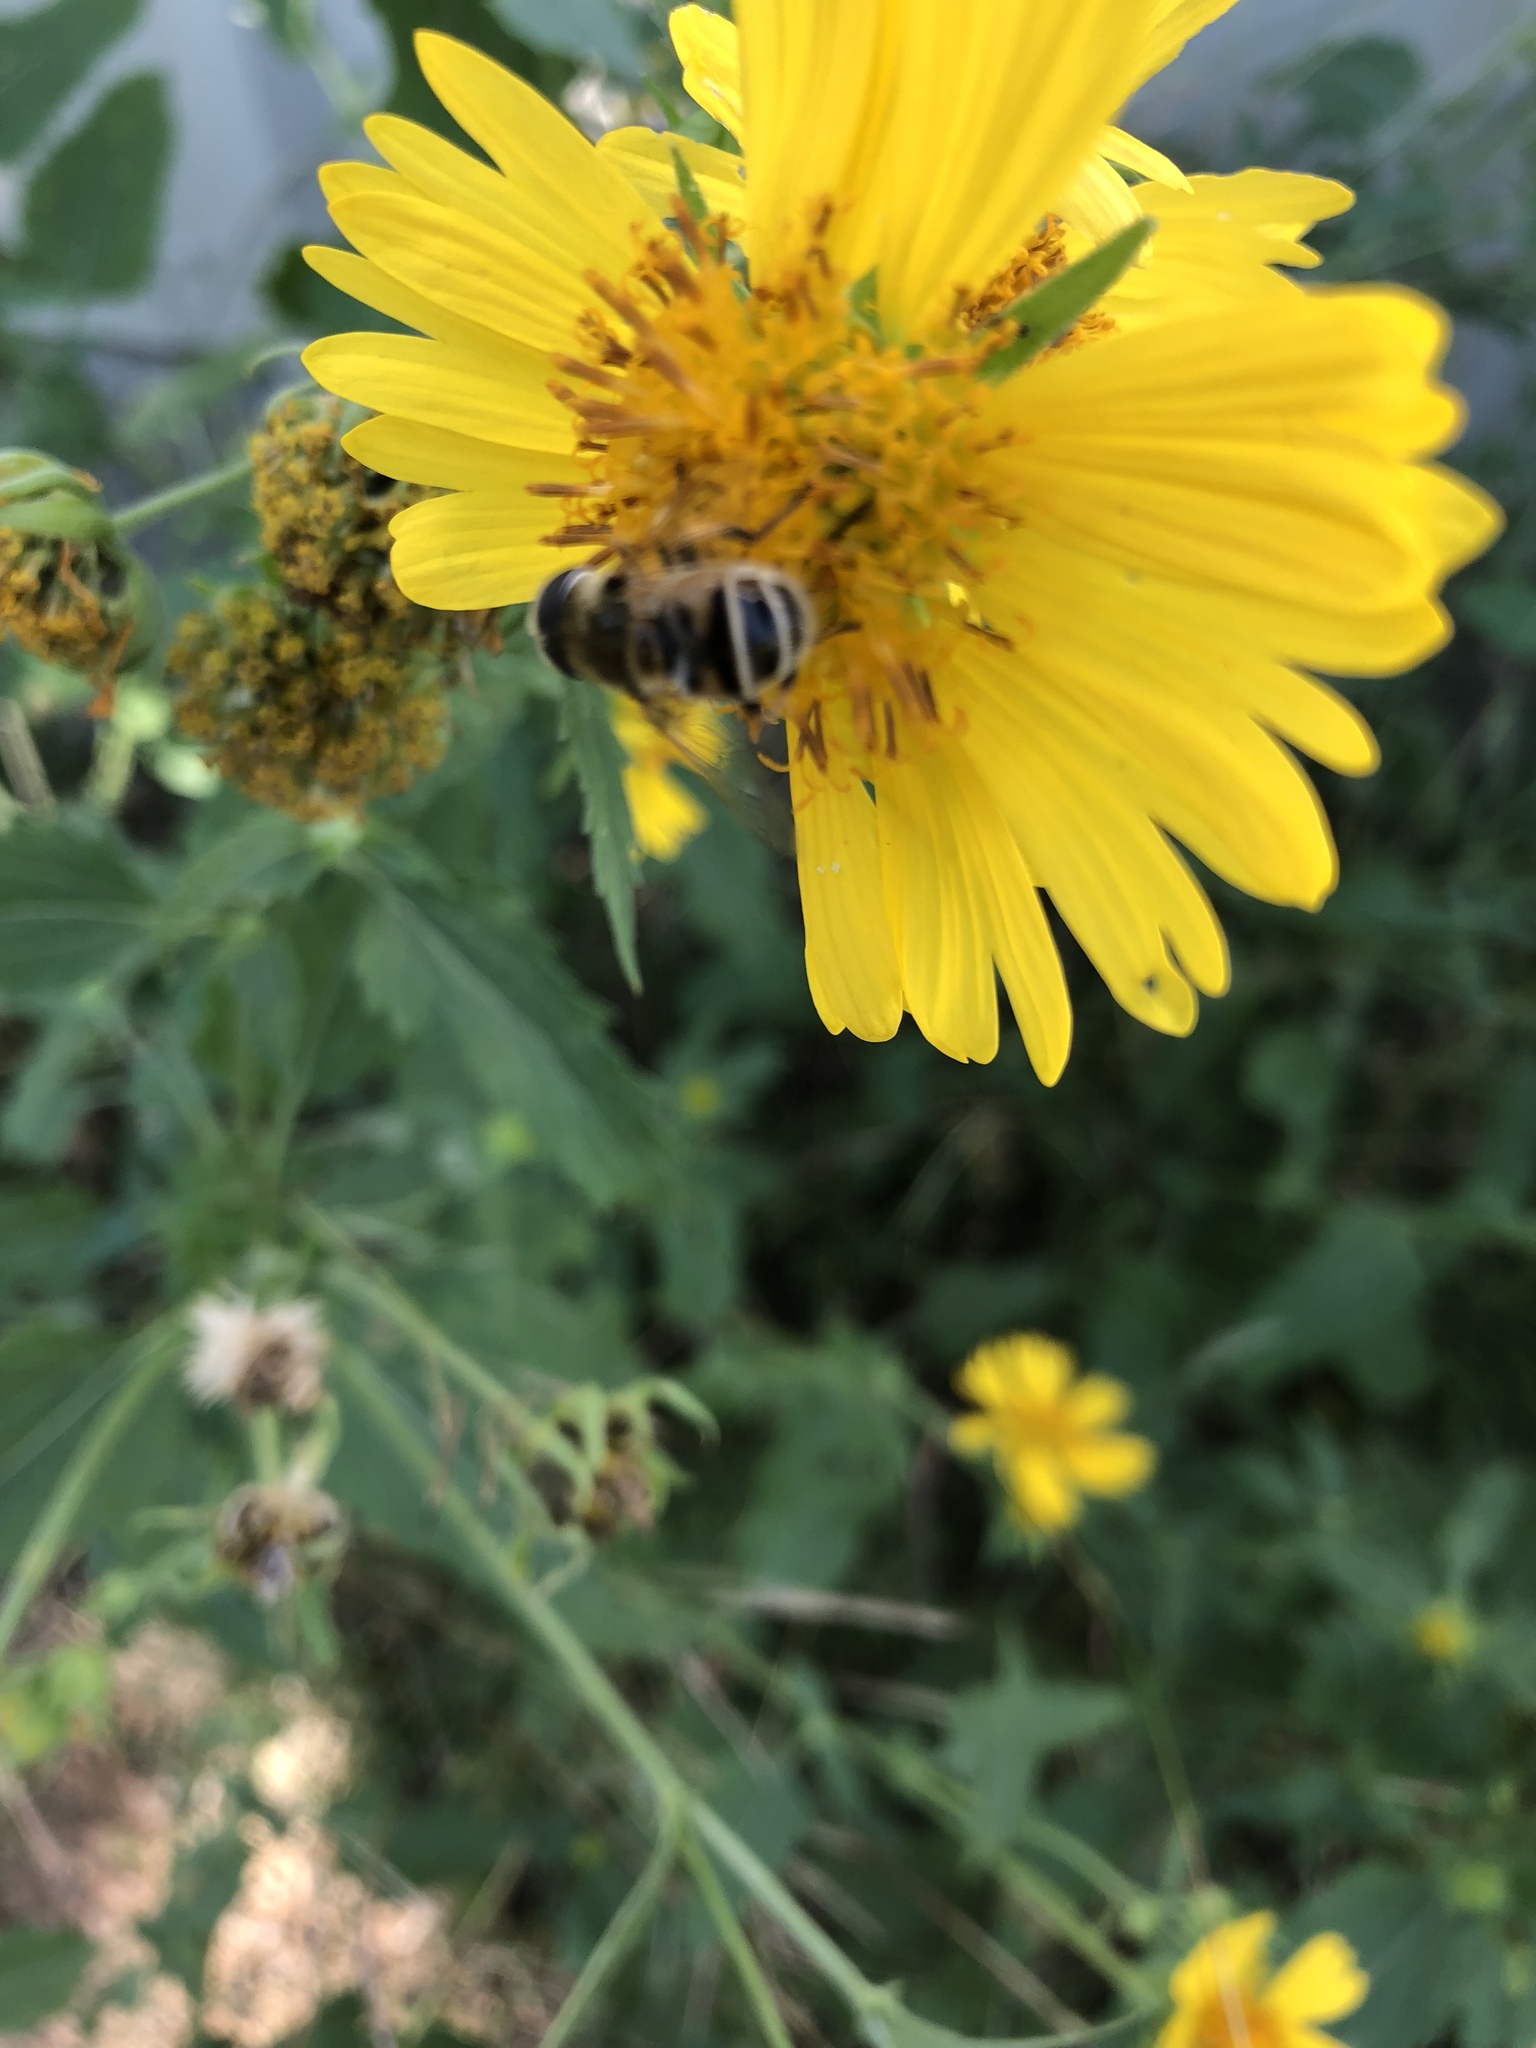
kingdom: Animalia
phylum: Arthropoda
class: Insecta
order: Diptera
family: Syrphidae
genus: Eristalis
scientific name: Eristalis stipator
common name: Yellow-shouldered drone fly
